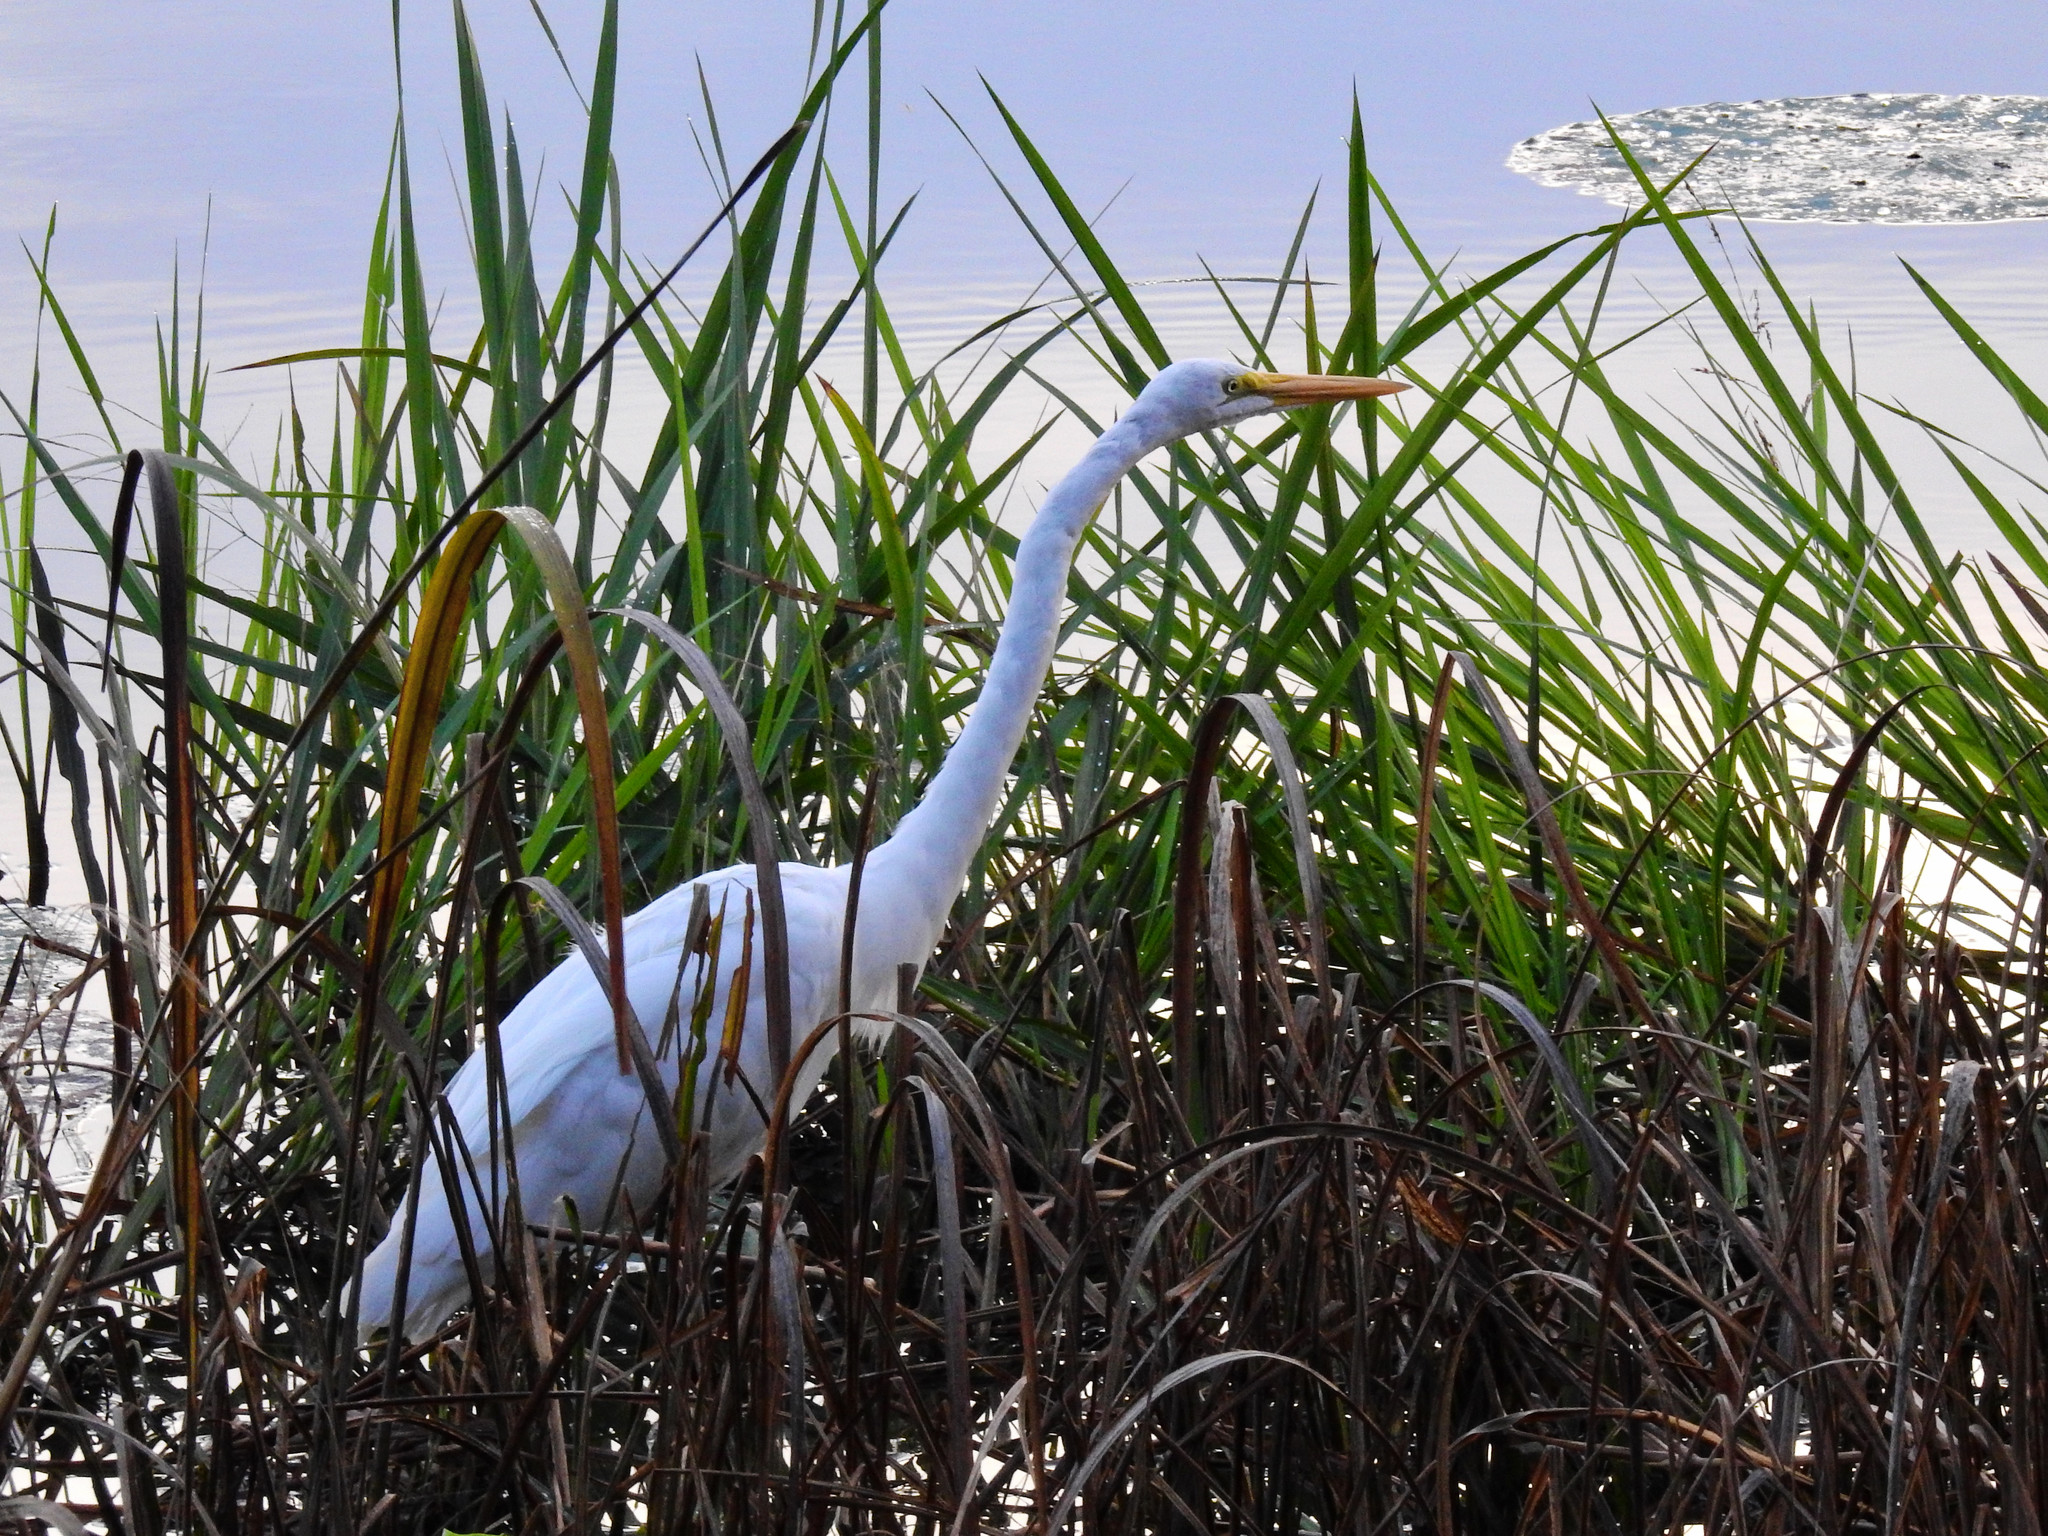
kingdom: Animalia
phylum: Chordata
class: Aves
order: Pelecaniformes
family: Ardeidae
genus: Ardea
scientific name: Ardea alba
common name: Great egret
